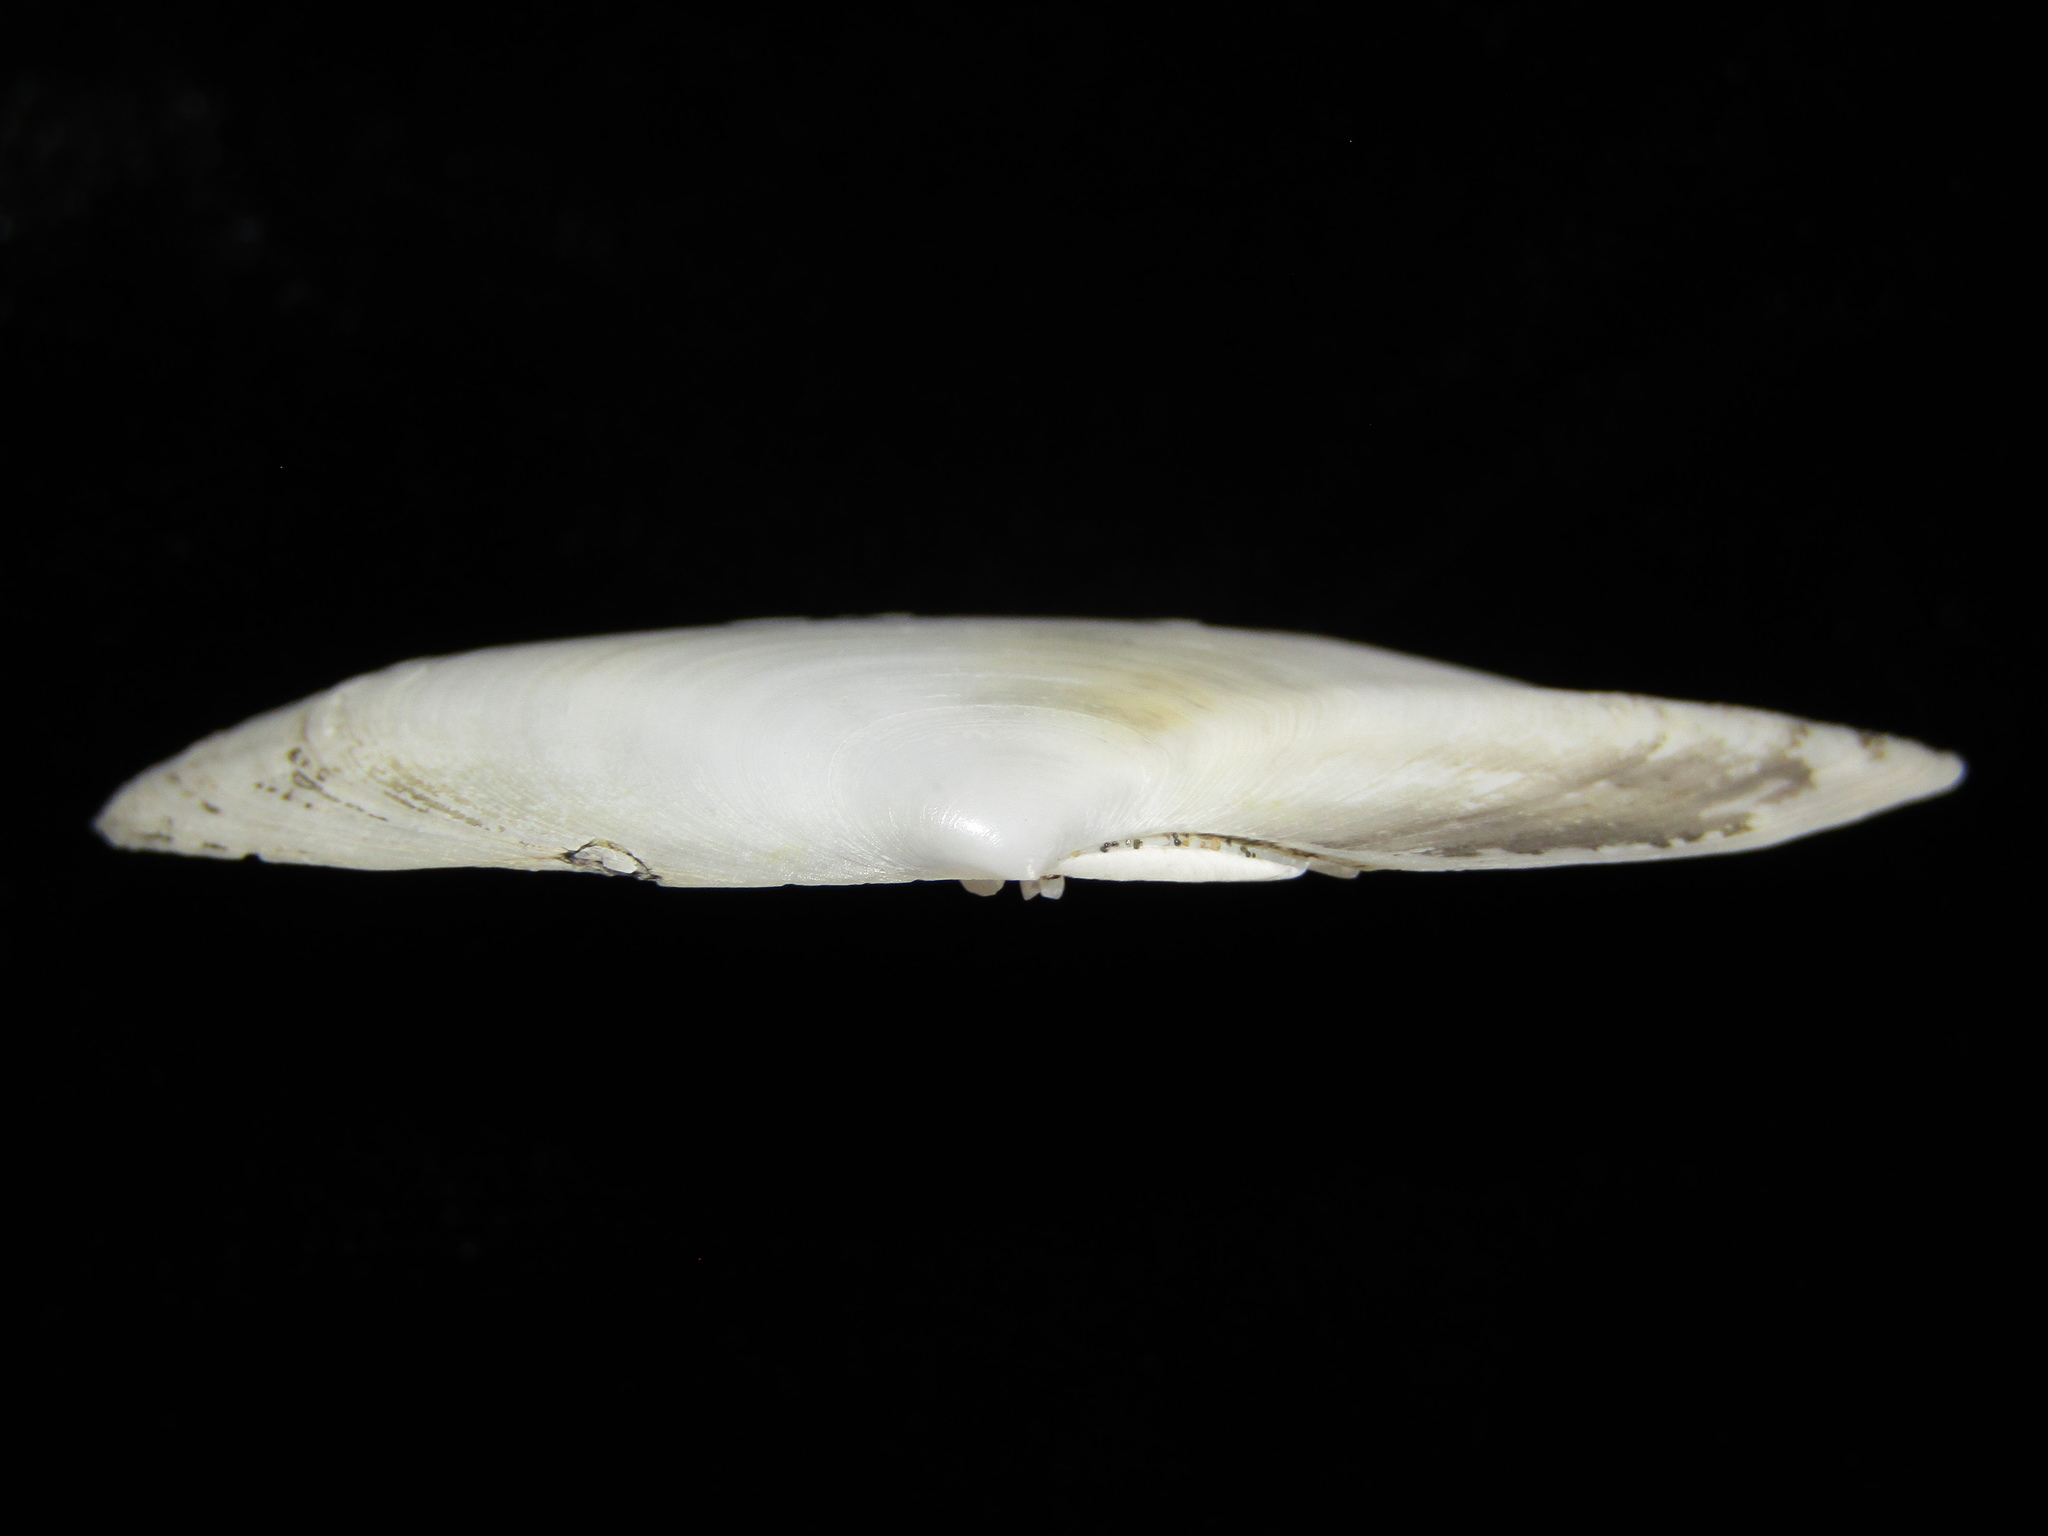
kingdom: Animalia
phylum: Mollusca
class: Bivalvia
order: Cardiida
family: Tellinidae
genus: Ardeamya
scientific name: Ardeamya spenceri
